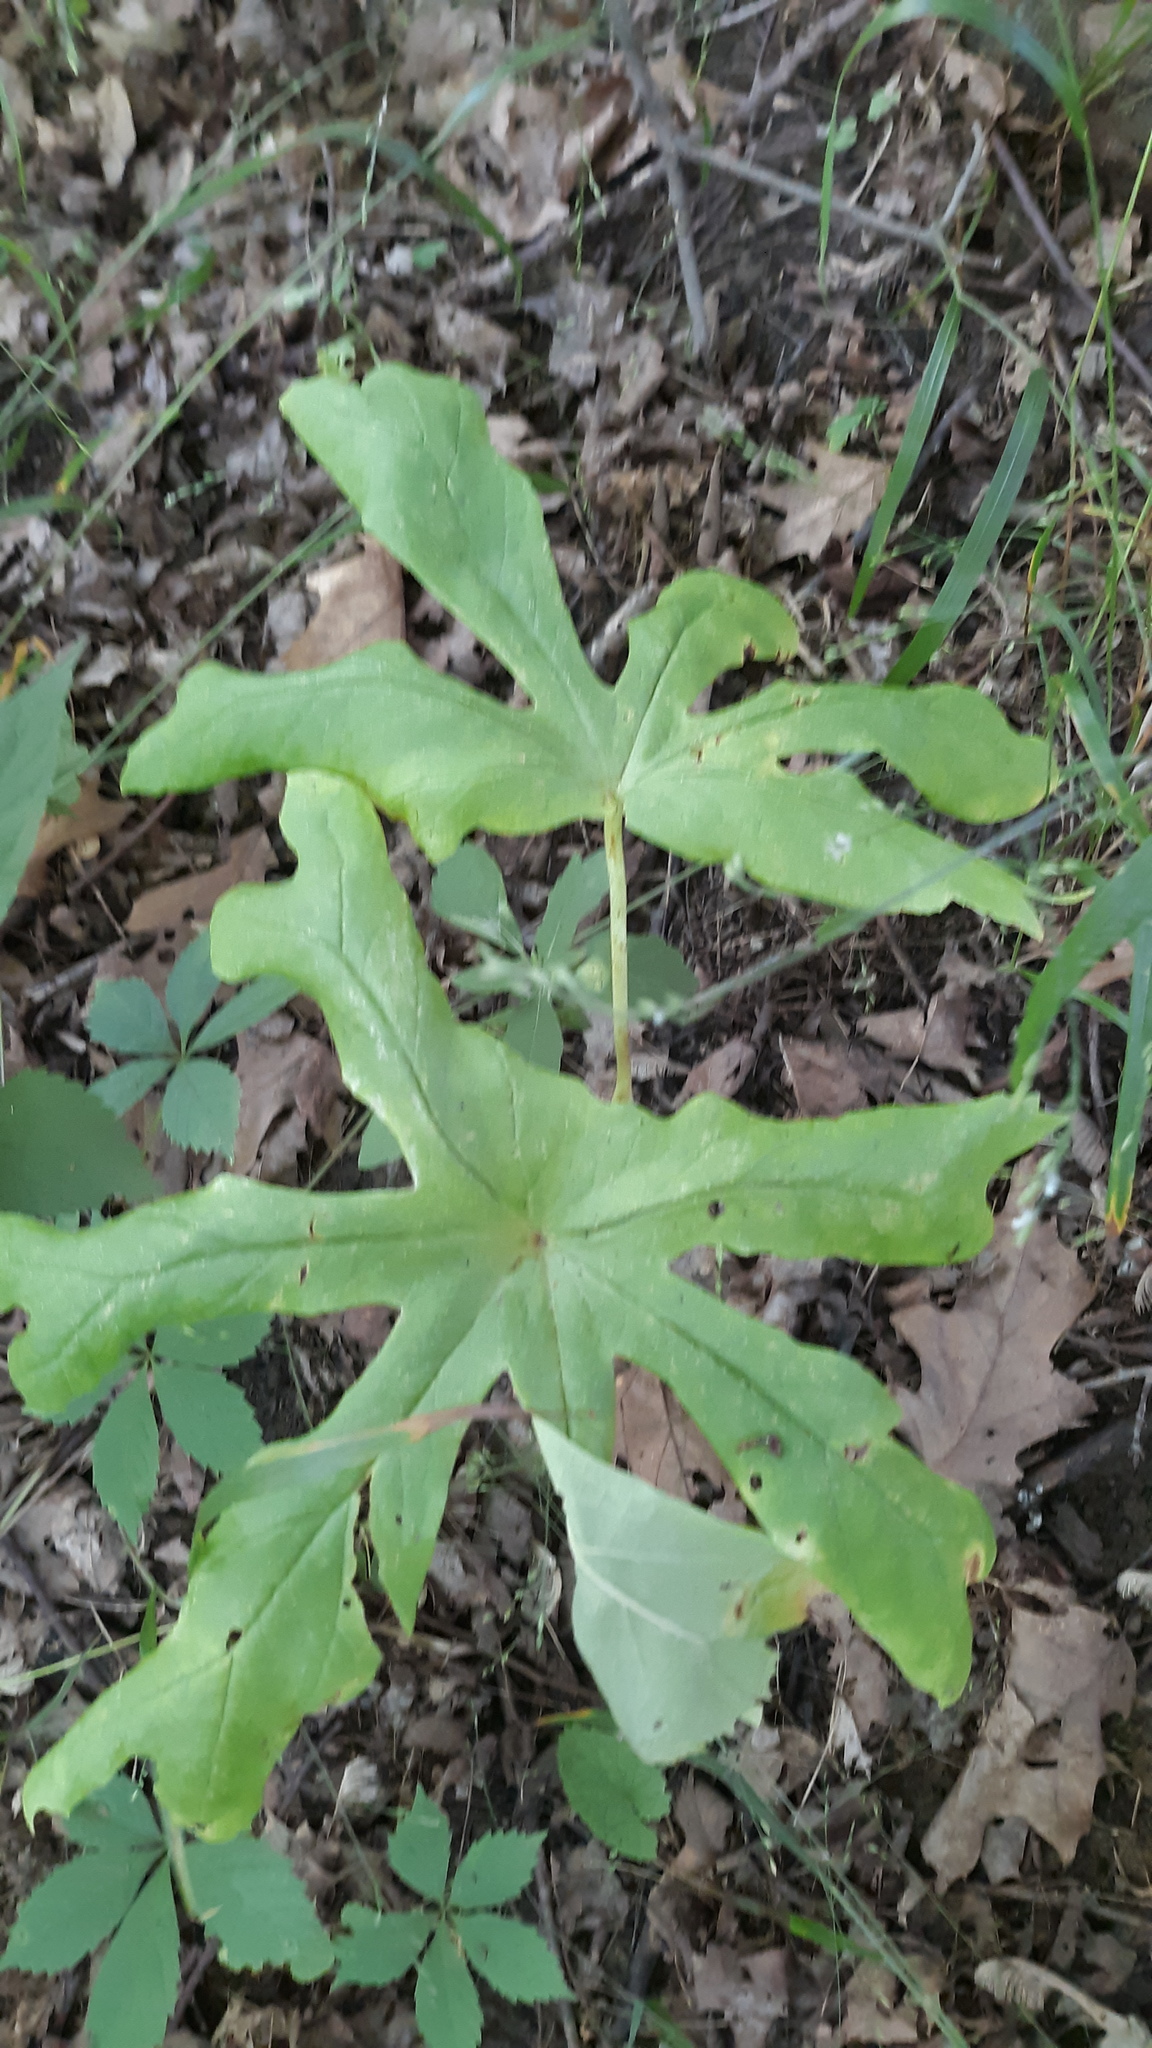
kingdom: Plantae
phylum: Tracheophyta
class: Magnoliopsida
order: Ranunculales
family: Berberidaceae
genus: Podophyllum
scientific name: Podophyllum peltatum
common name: Wild mandrake
